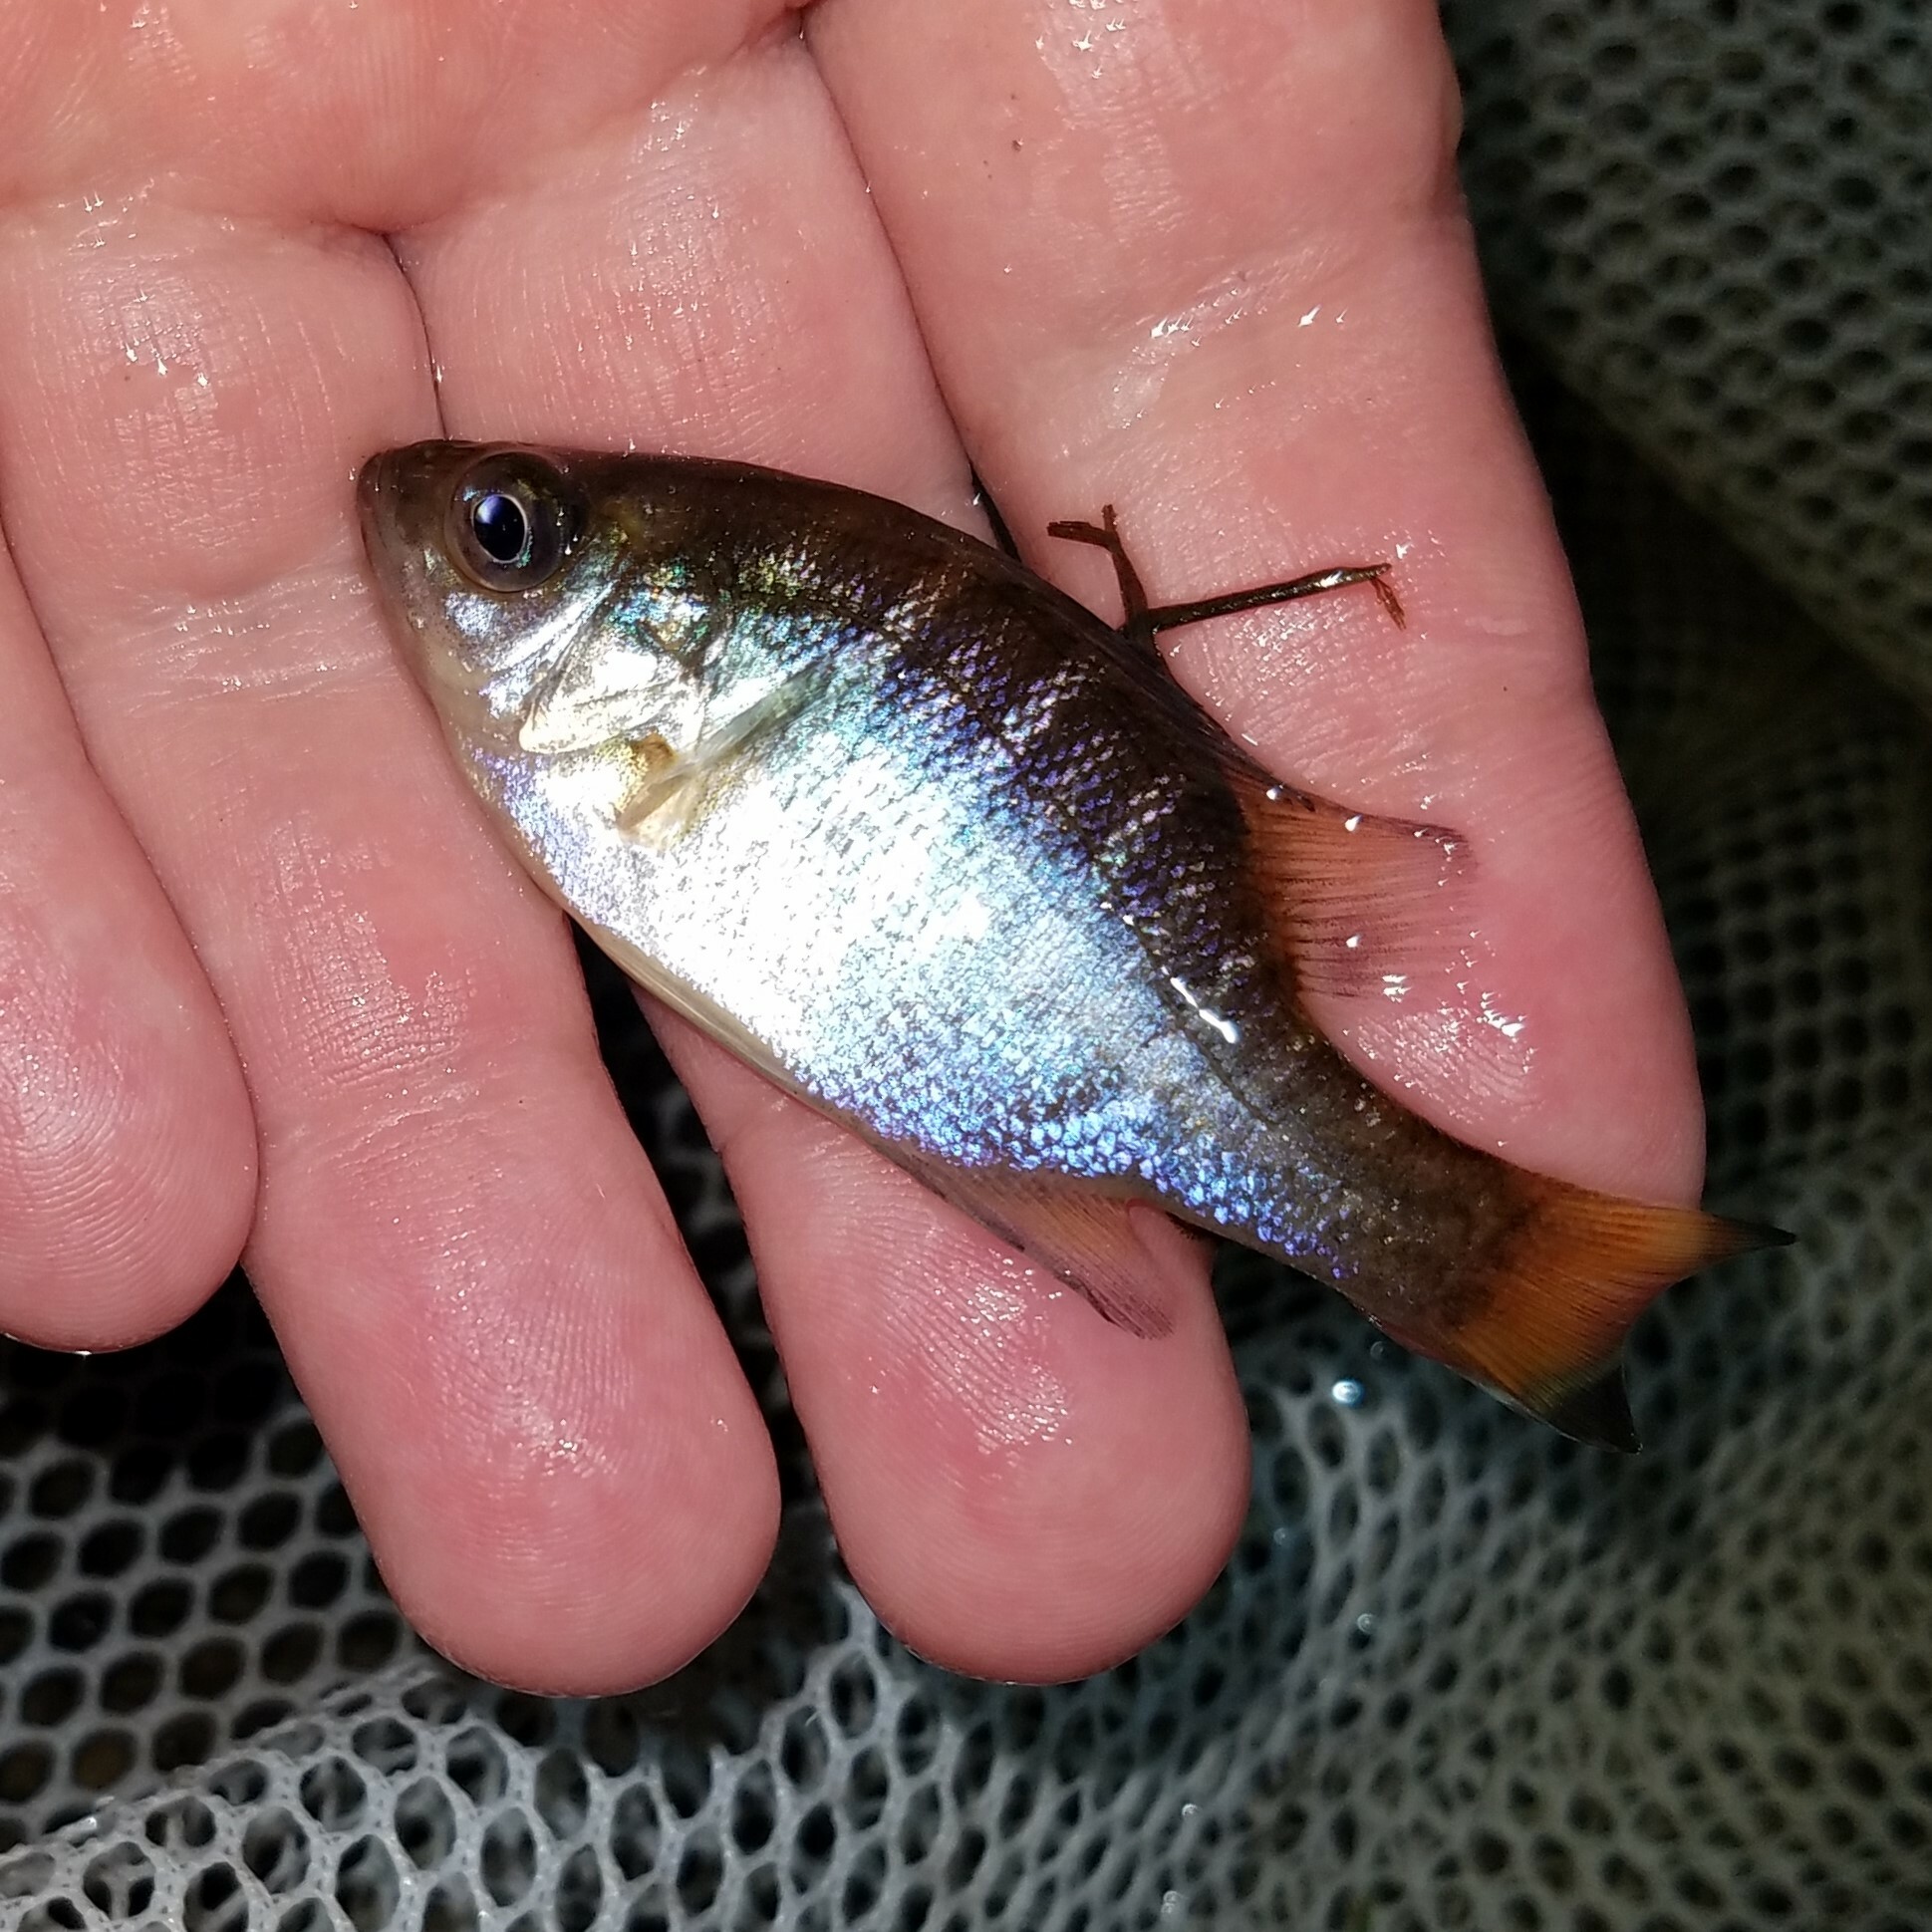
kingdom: Animalia
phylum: Chordata
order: Perciformes
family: Centrarchidae
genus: Lepomis
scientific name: Lepomis macrochirus
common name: Bluegill
